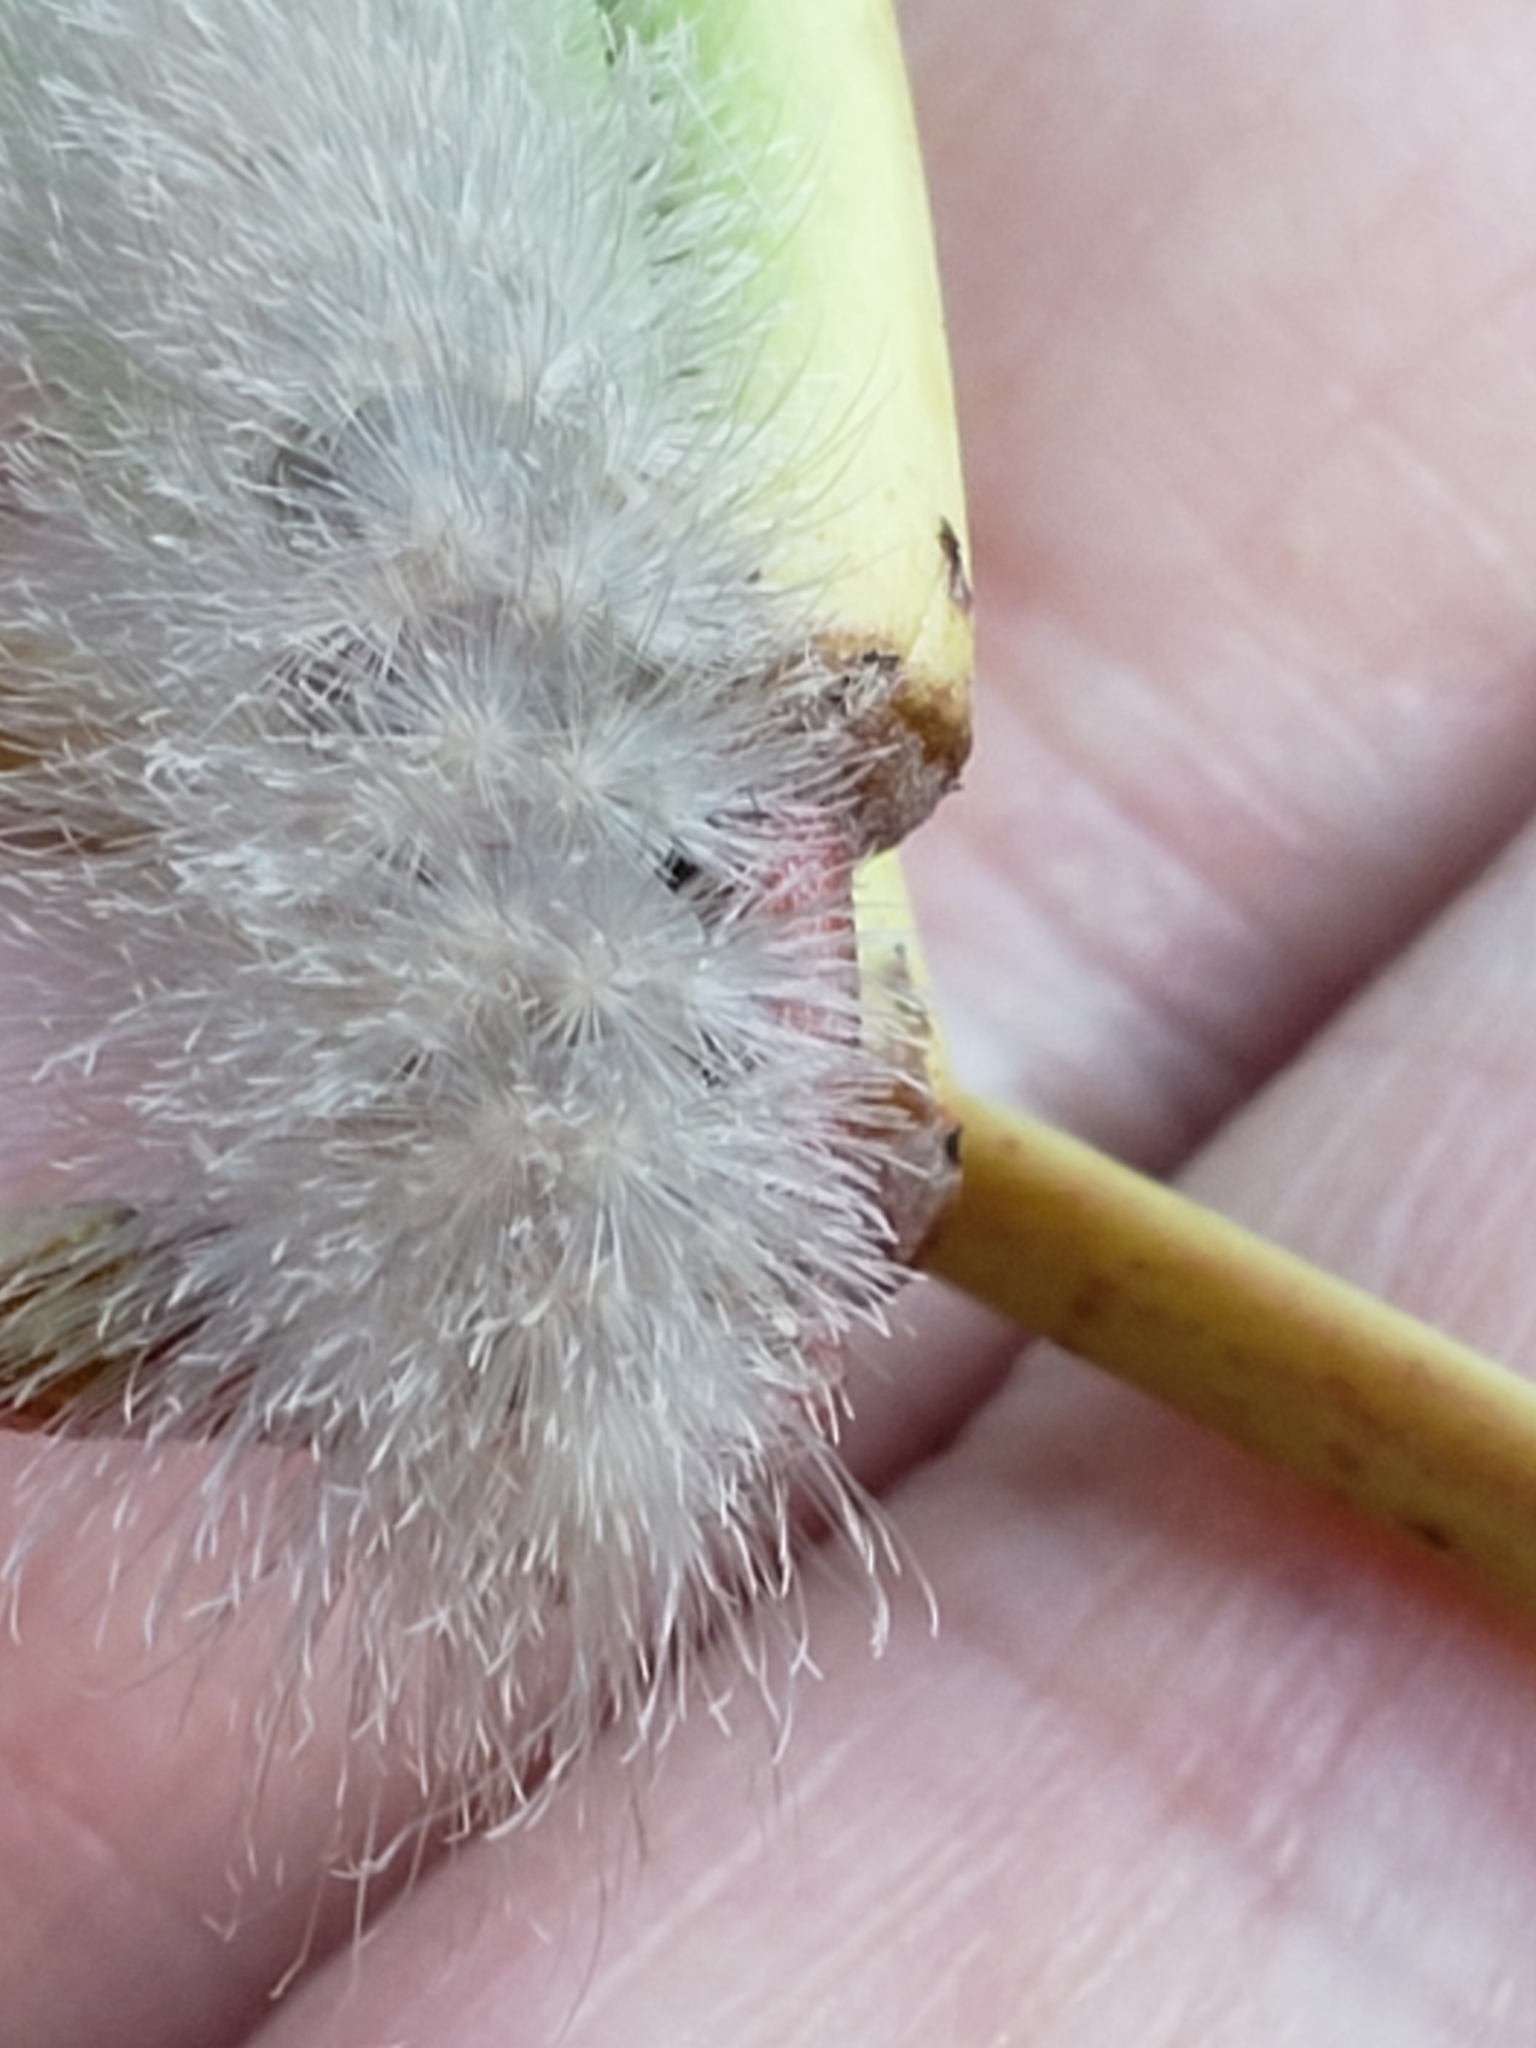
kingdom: Animalia
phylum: Arthropoda
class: Insecta
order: Lepidoptera
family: Erebidae
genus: Cycnia
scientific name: Cycnia tenera
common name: Delicate cycnia moth
